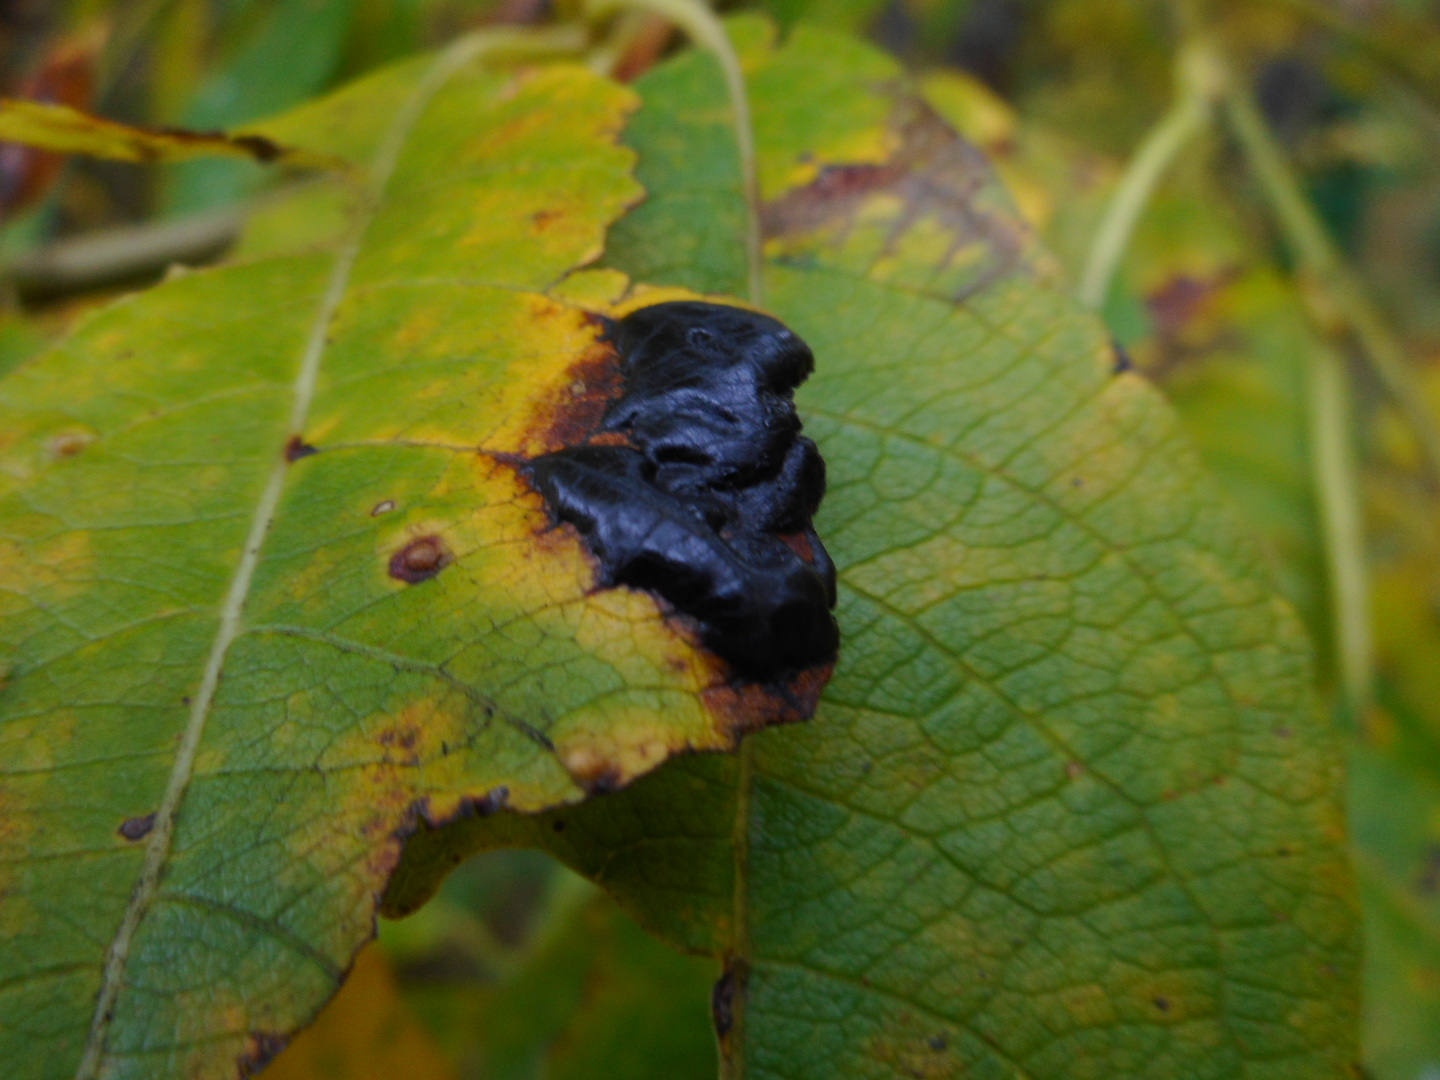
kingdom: Fungi
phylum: Ascomycota
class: Leotiomycetes
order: Rhytismatales
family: Rhytismataceae
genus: Rhytisma
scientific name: Rhytisma salicinum
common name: Willow tarspot
